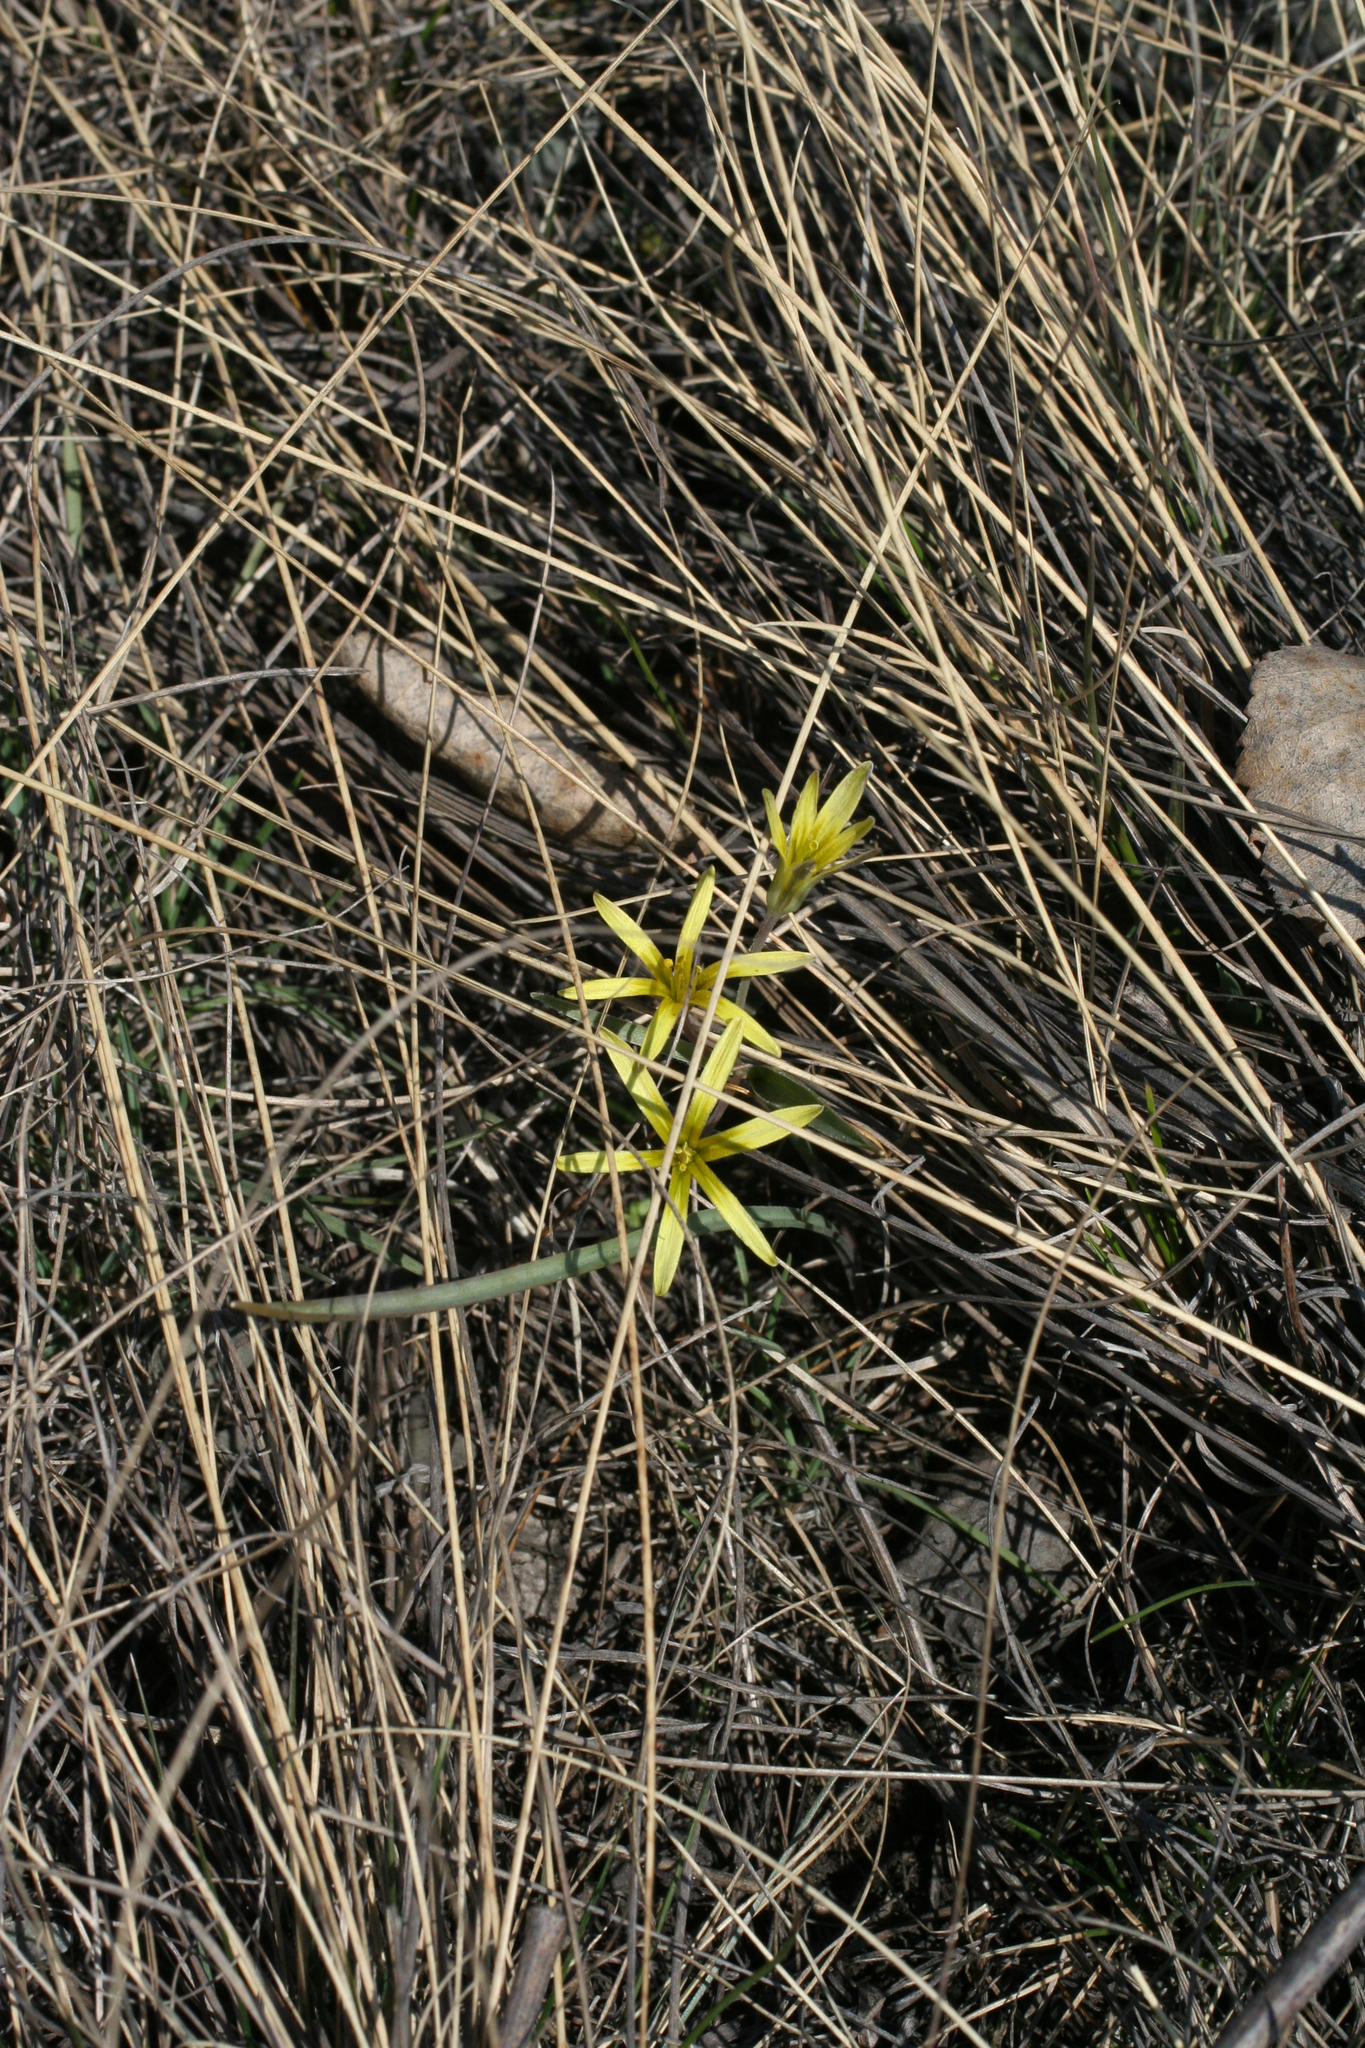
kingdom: Plantae
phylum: Tracheophyta
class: Liliopsida
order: Liliales
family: Liliaceae
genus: Gagea
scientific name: Gagea fedtschenkoana
